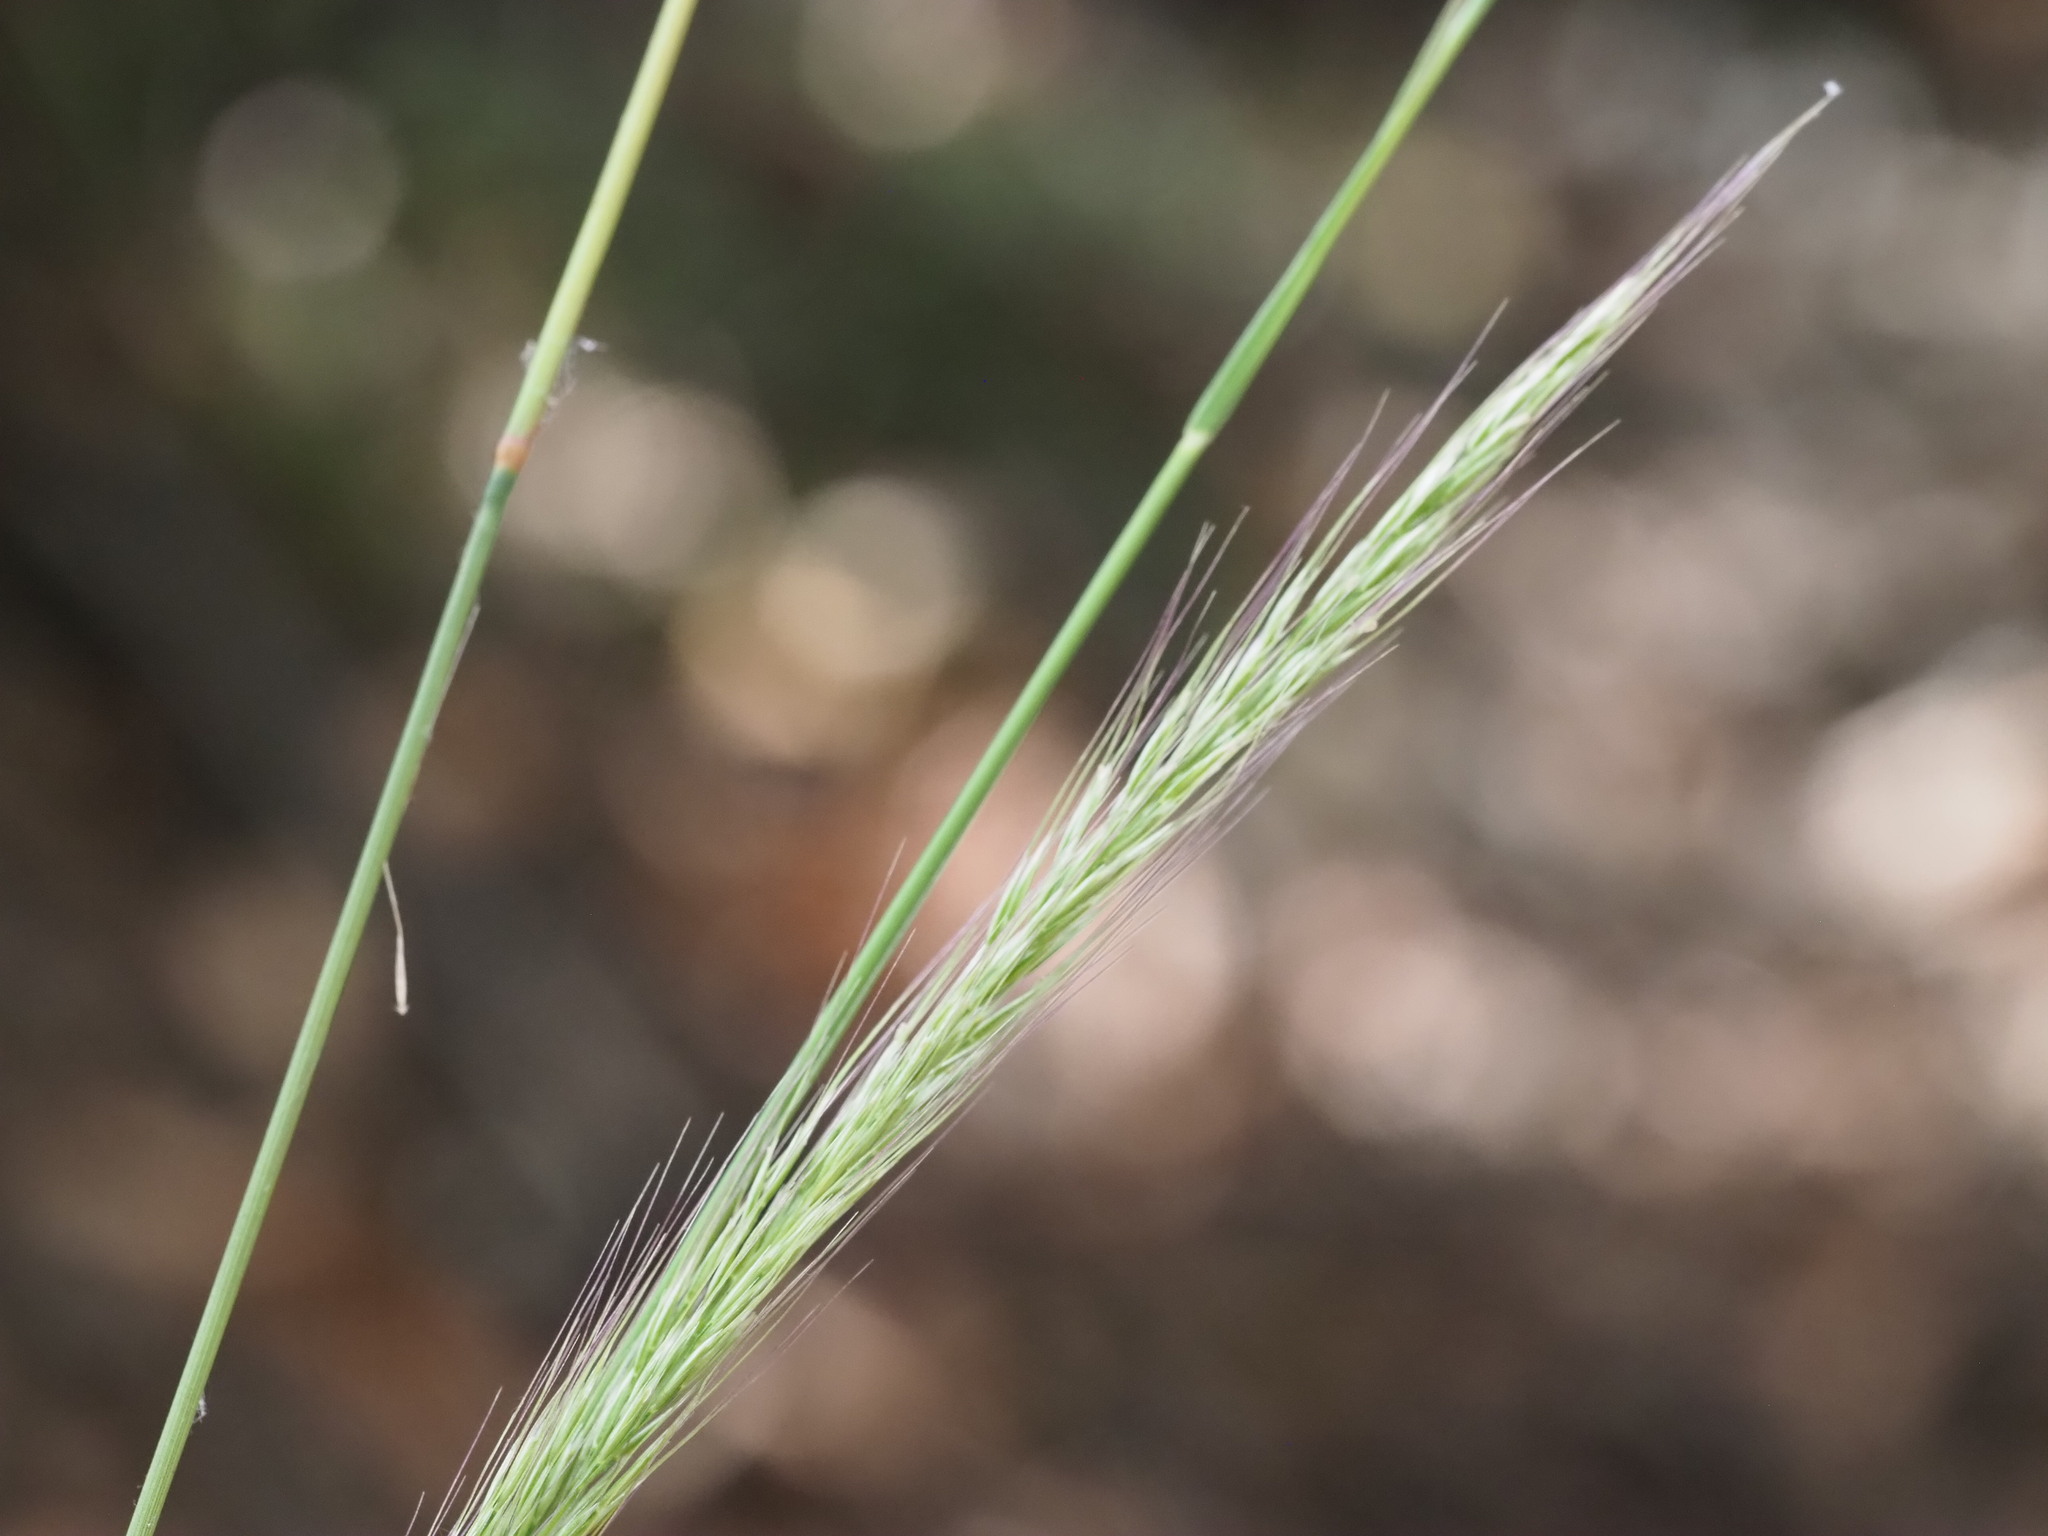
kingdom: Plantae
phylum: Tracheophyta
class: Liliopsida
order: Poales
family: Poaceae
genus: Dichelachne
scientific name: Dichelachne micrantha
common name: Plumegrass
